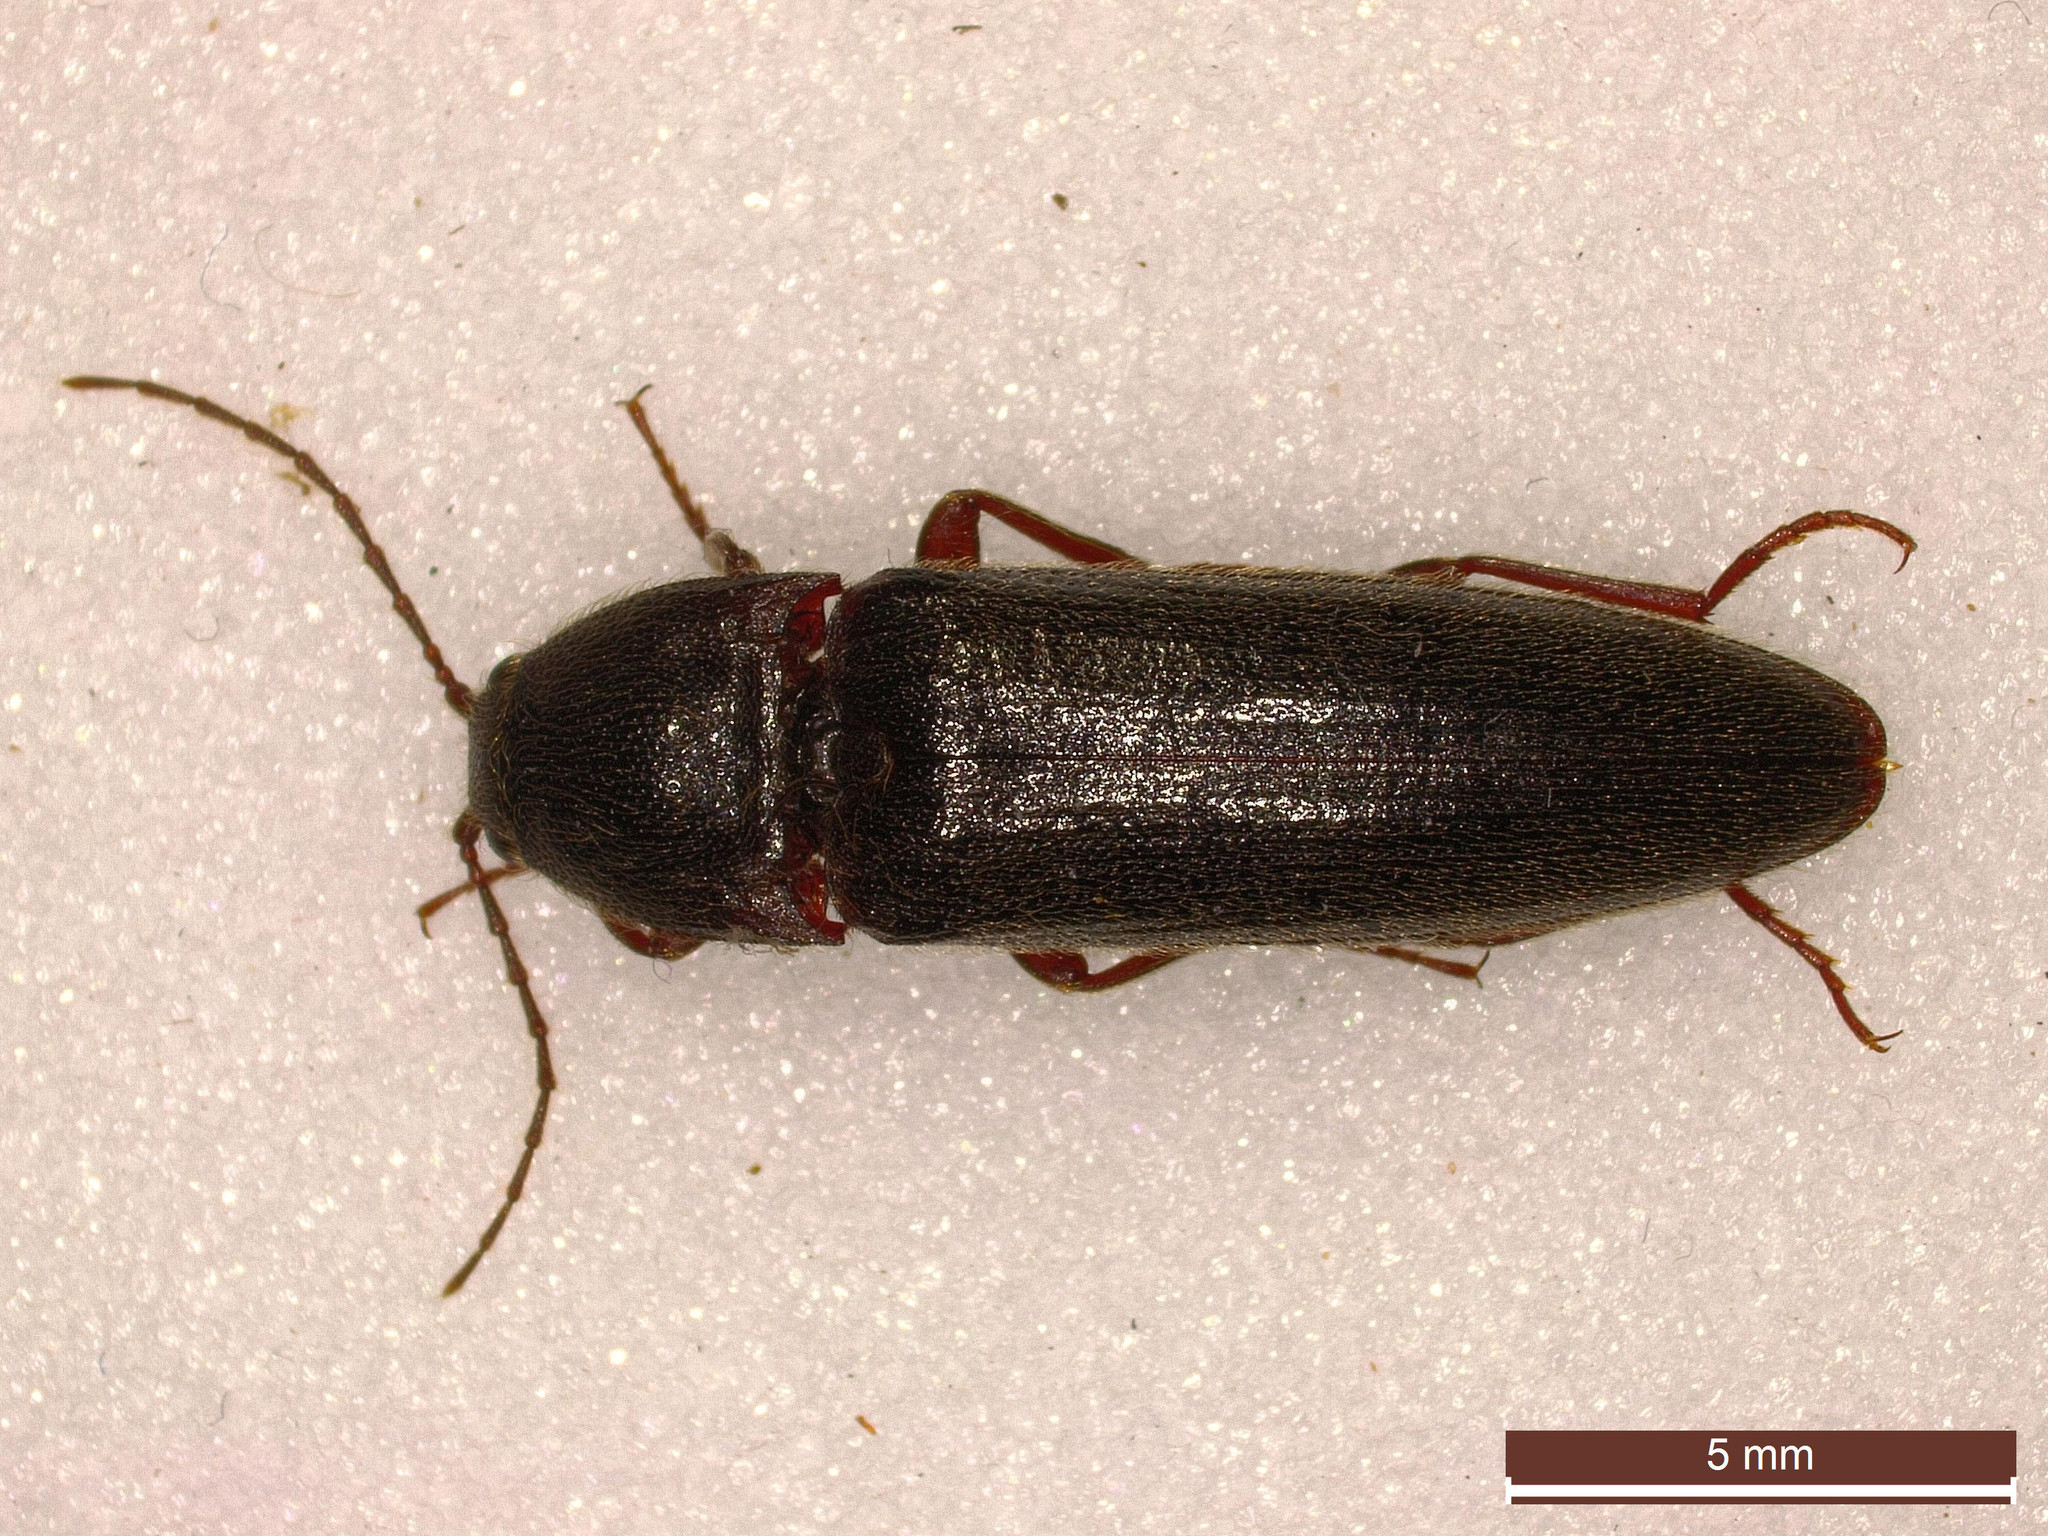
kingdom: Animalia
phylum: Arthropoda
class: Insecta
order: Coleoptera
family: Elateridae
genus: Melanotus
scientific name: Melanotus villosus
